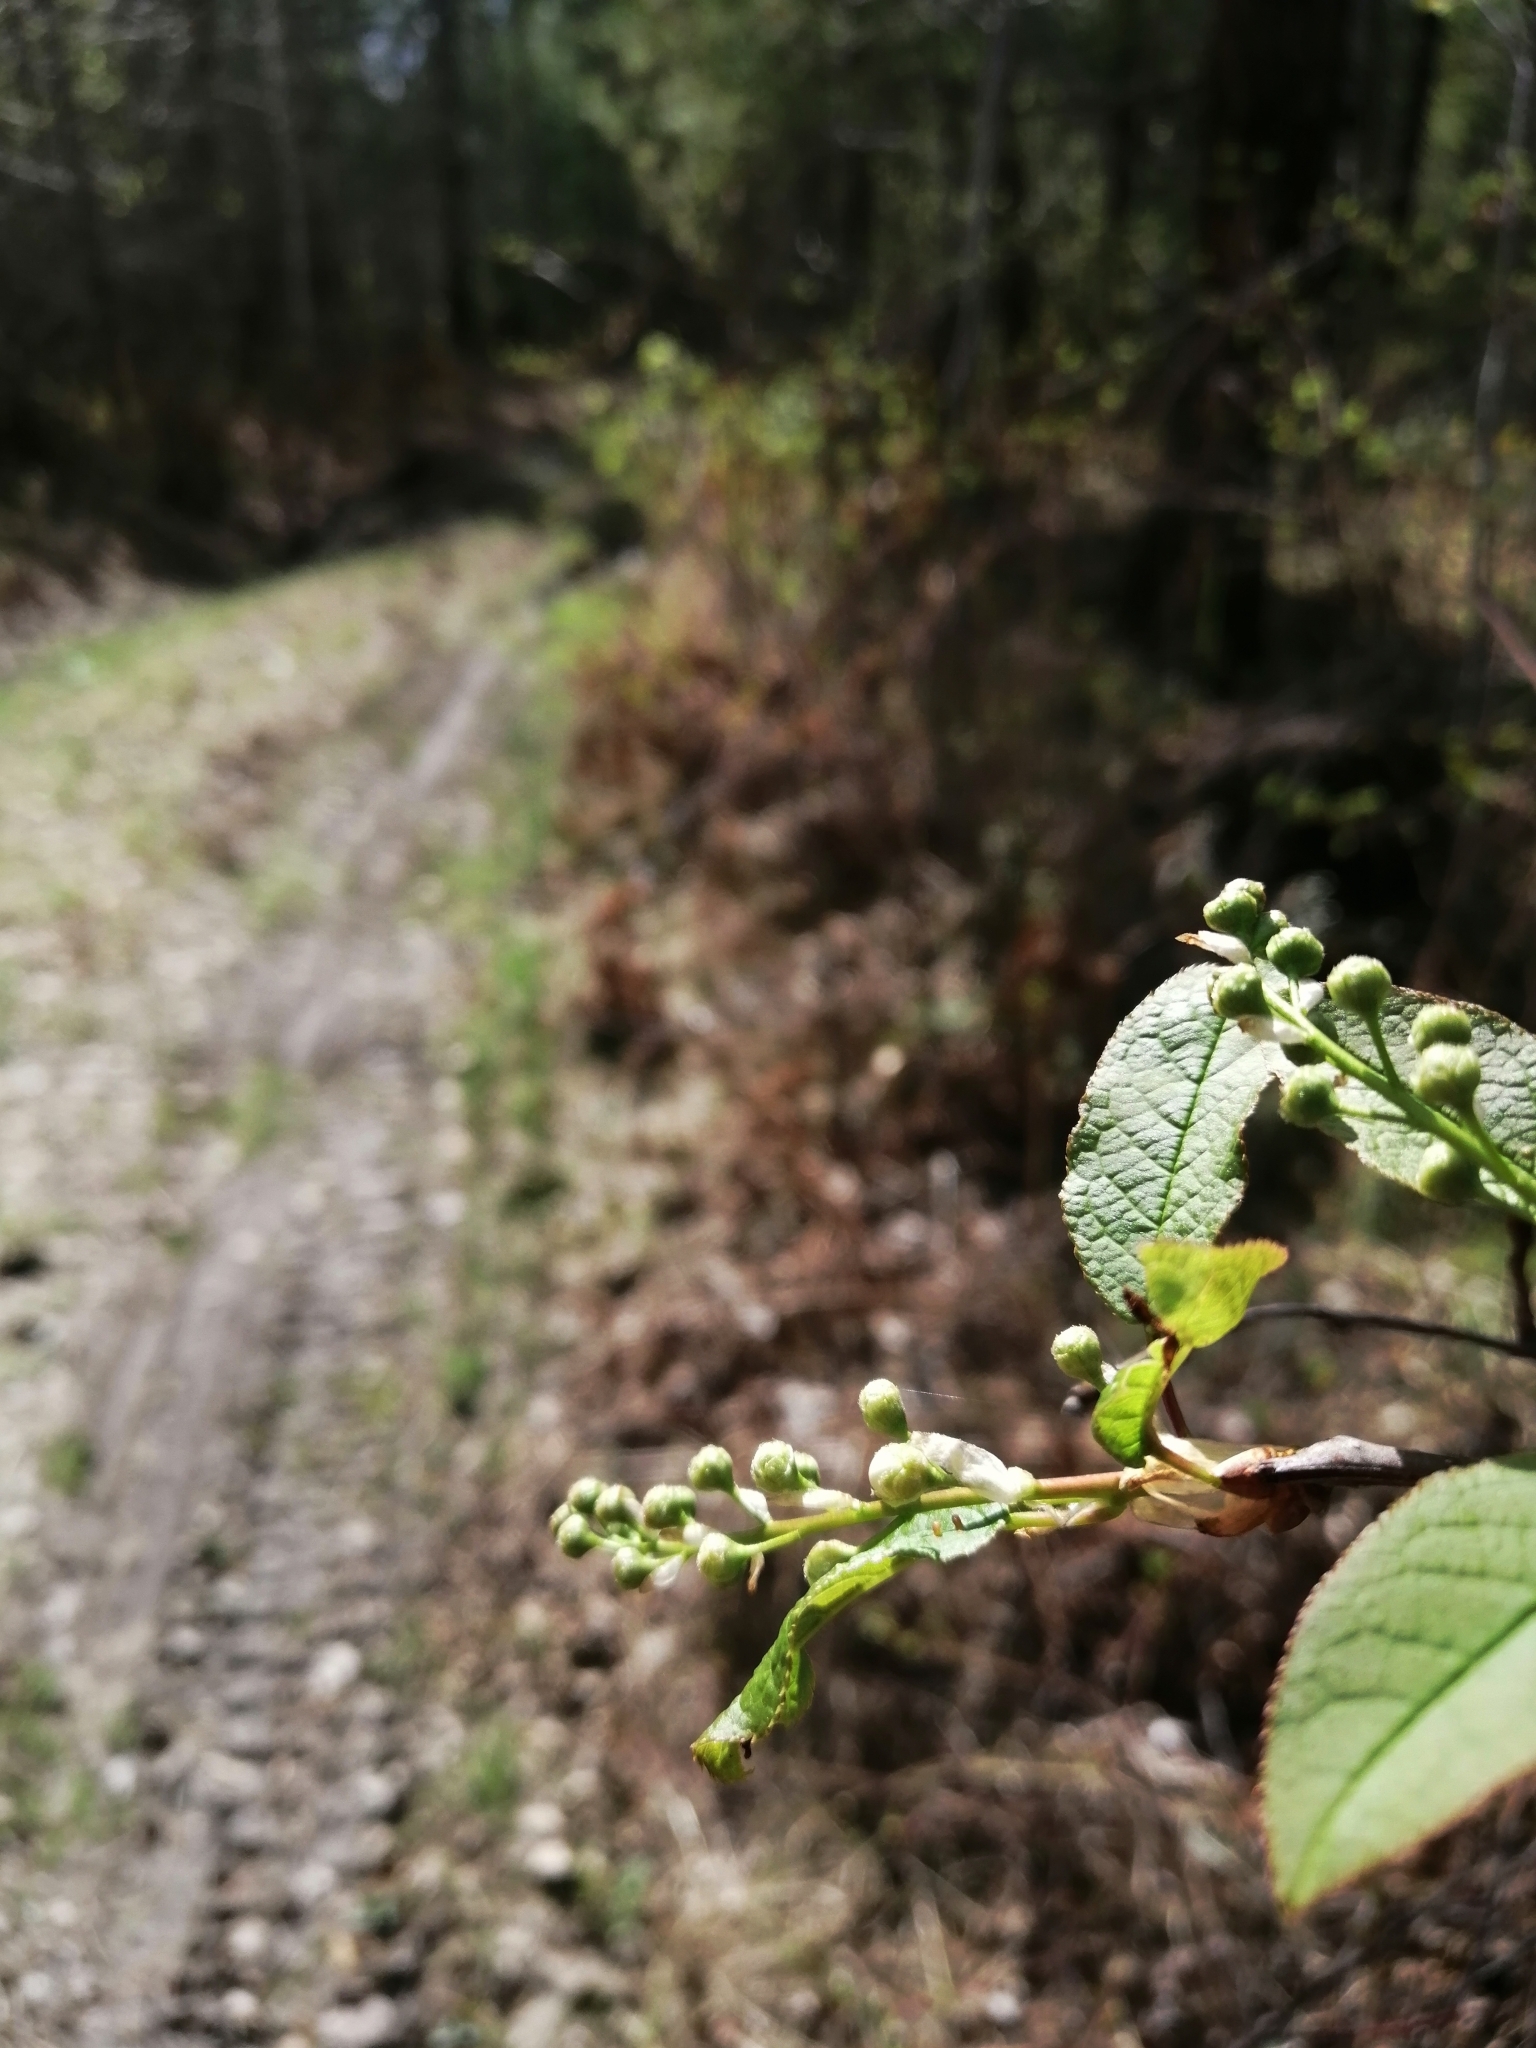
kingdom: Plantae
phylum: Tracheophyta
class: Magnoliopsida
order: Rosales
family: Rosaceae
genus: Prunus
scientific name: Prunus padus
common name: Bird cherry
